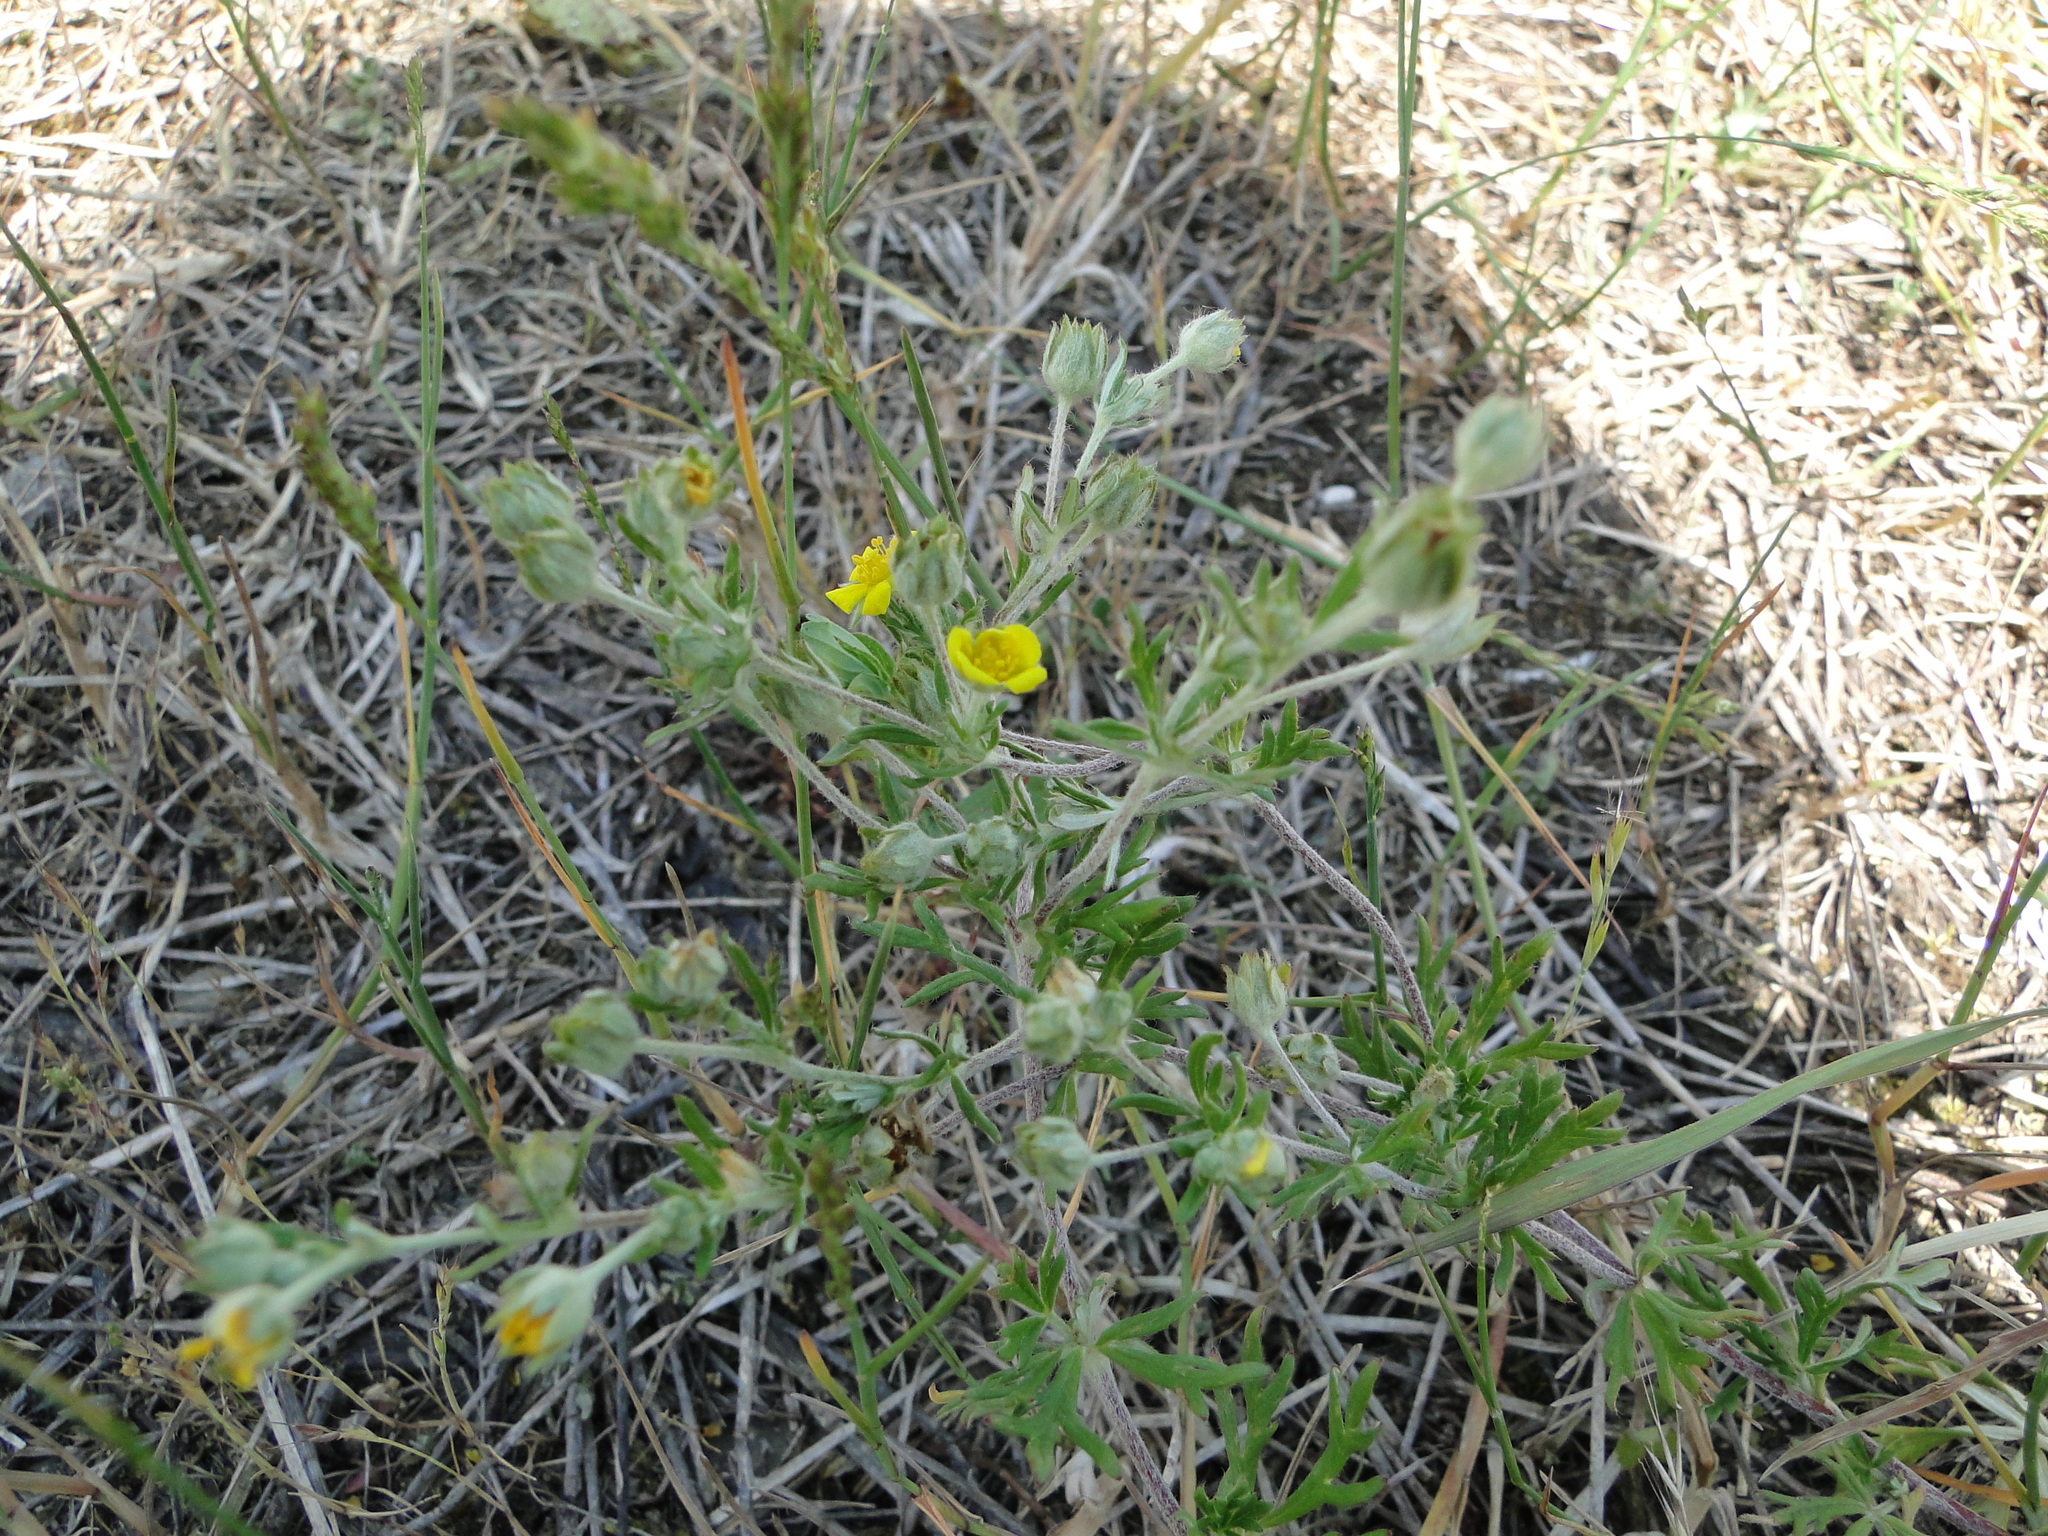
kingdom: Plantae
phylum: Tracheophyta
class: Magnoliopsida
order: Rosales
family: Rosaceae
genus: Potentilla
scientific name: Potentilla argentea
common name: Hoary cinquefoil
